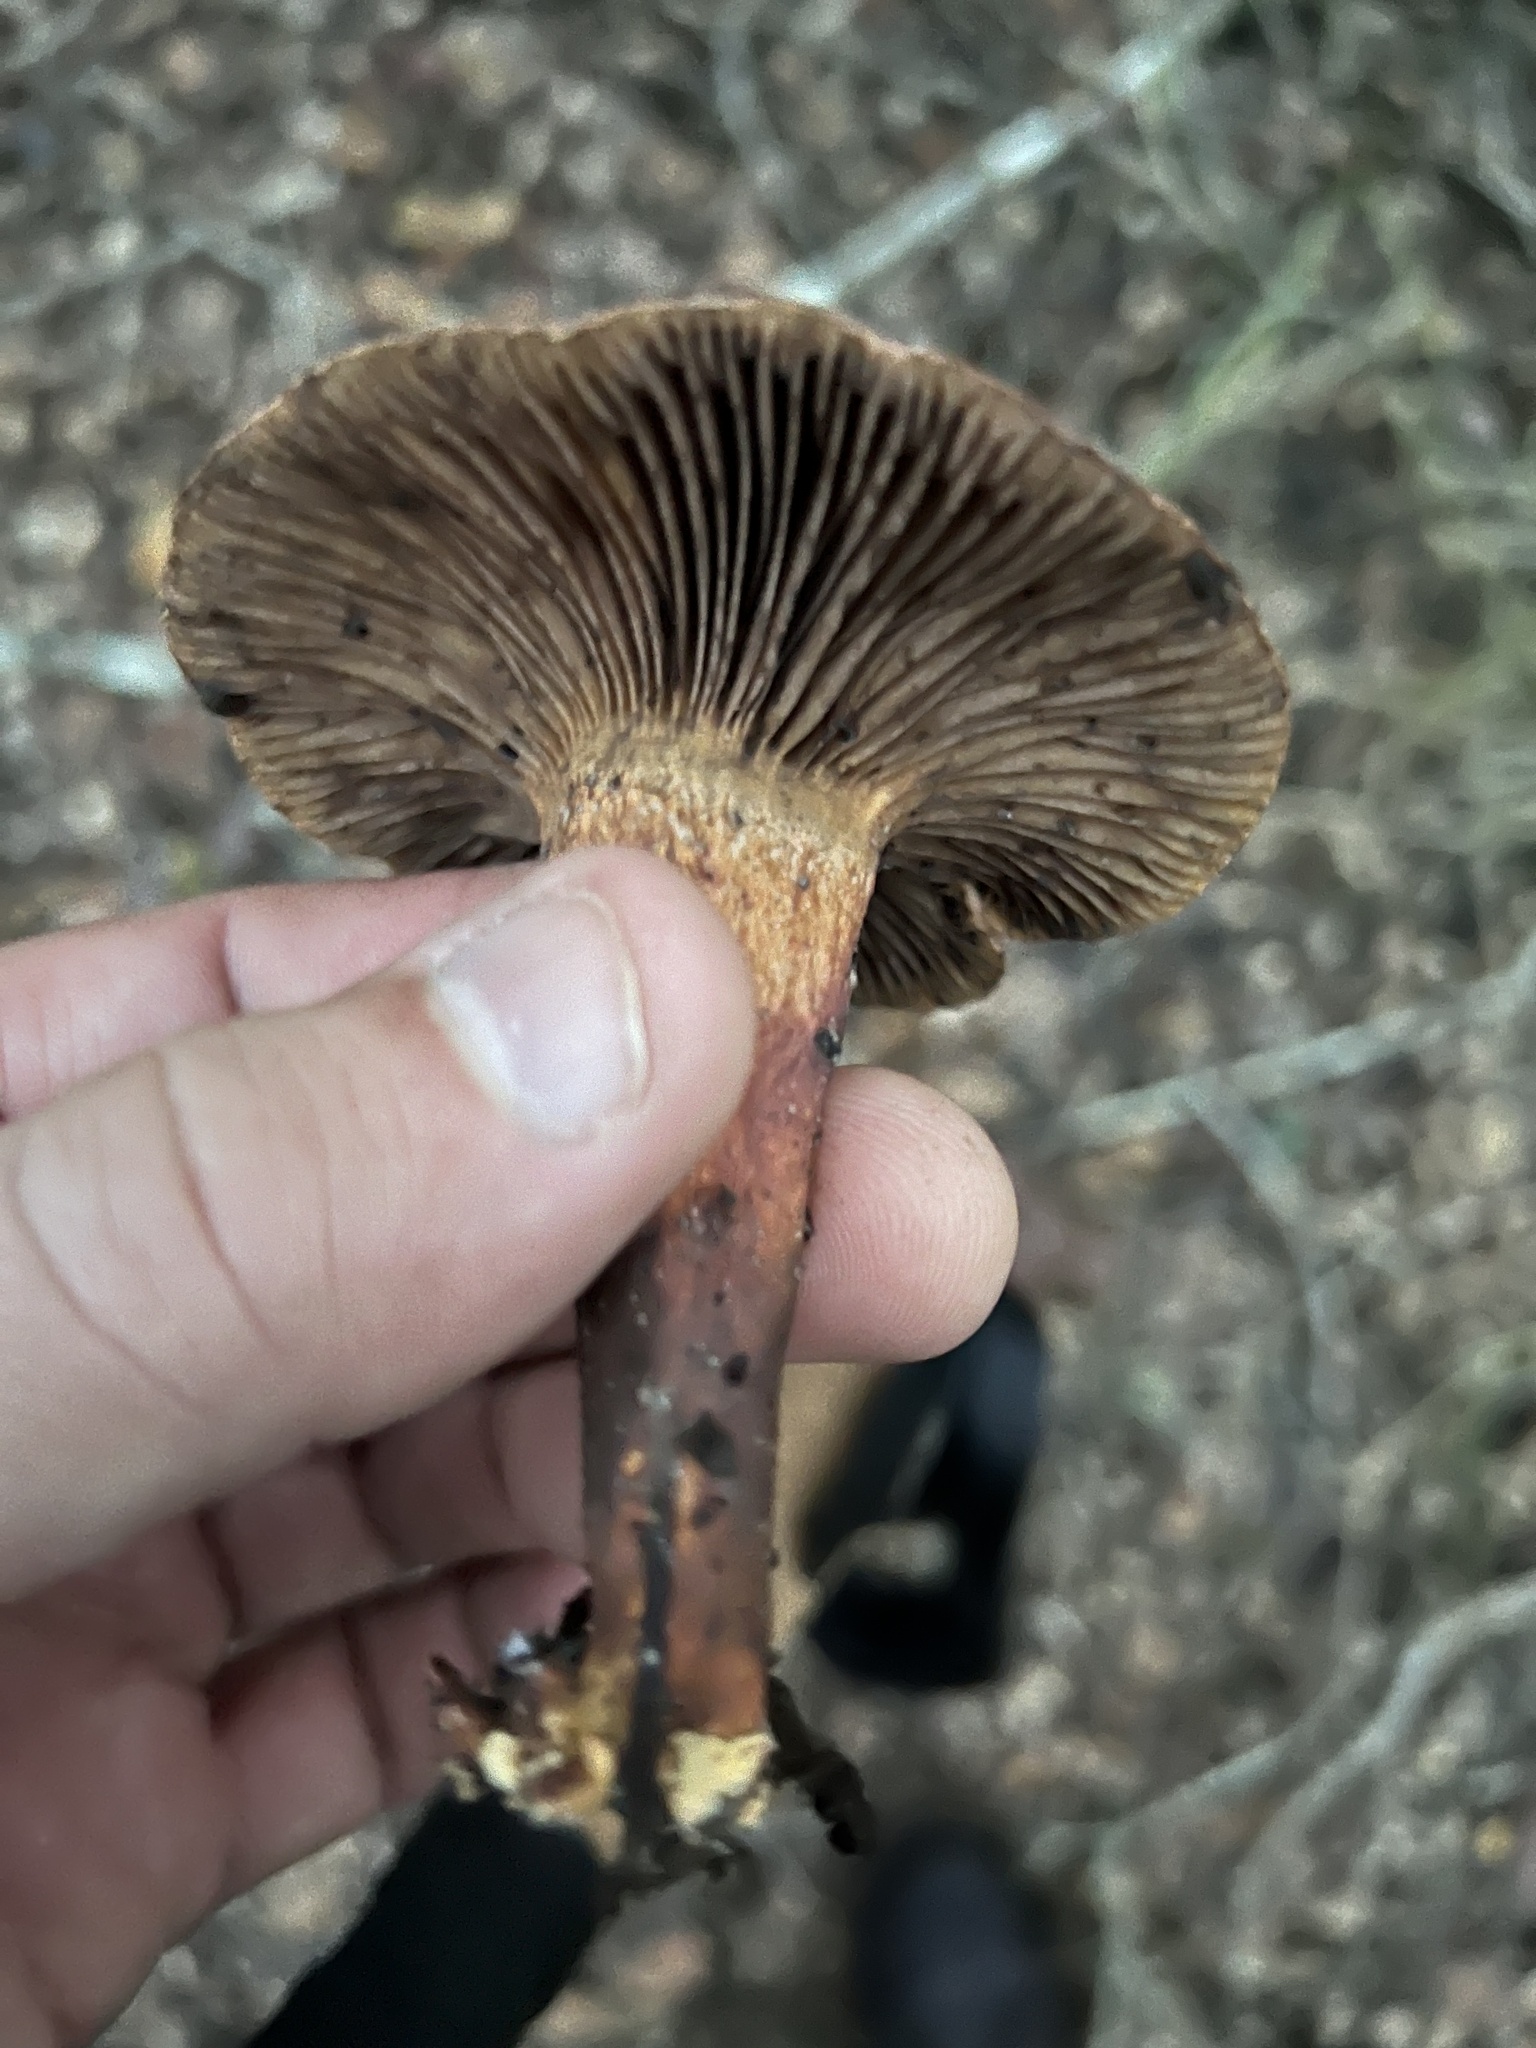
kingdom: Fungi
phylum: Basidiomycota
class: Agaricomycetes
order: Boletales
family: Gomphidiaceae
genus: Chroogomphus
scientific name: Chroogomphus vinicolor
